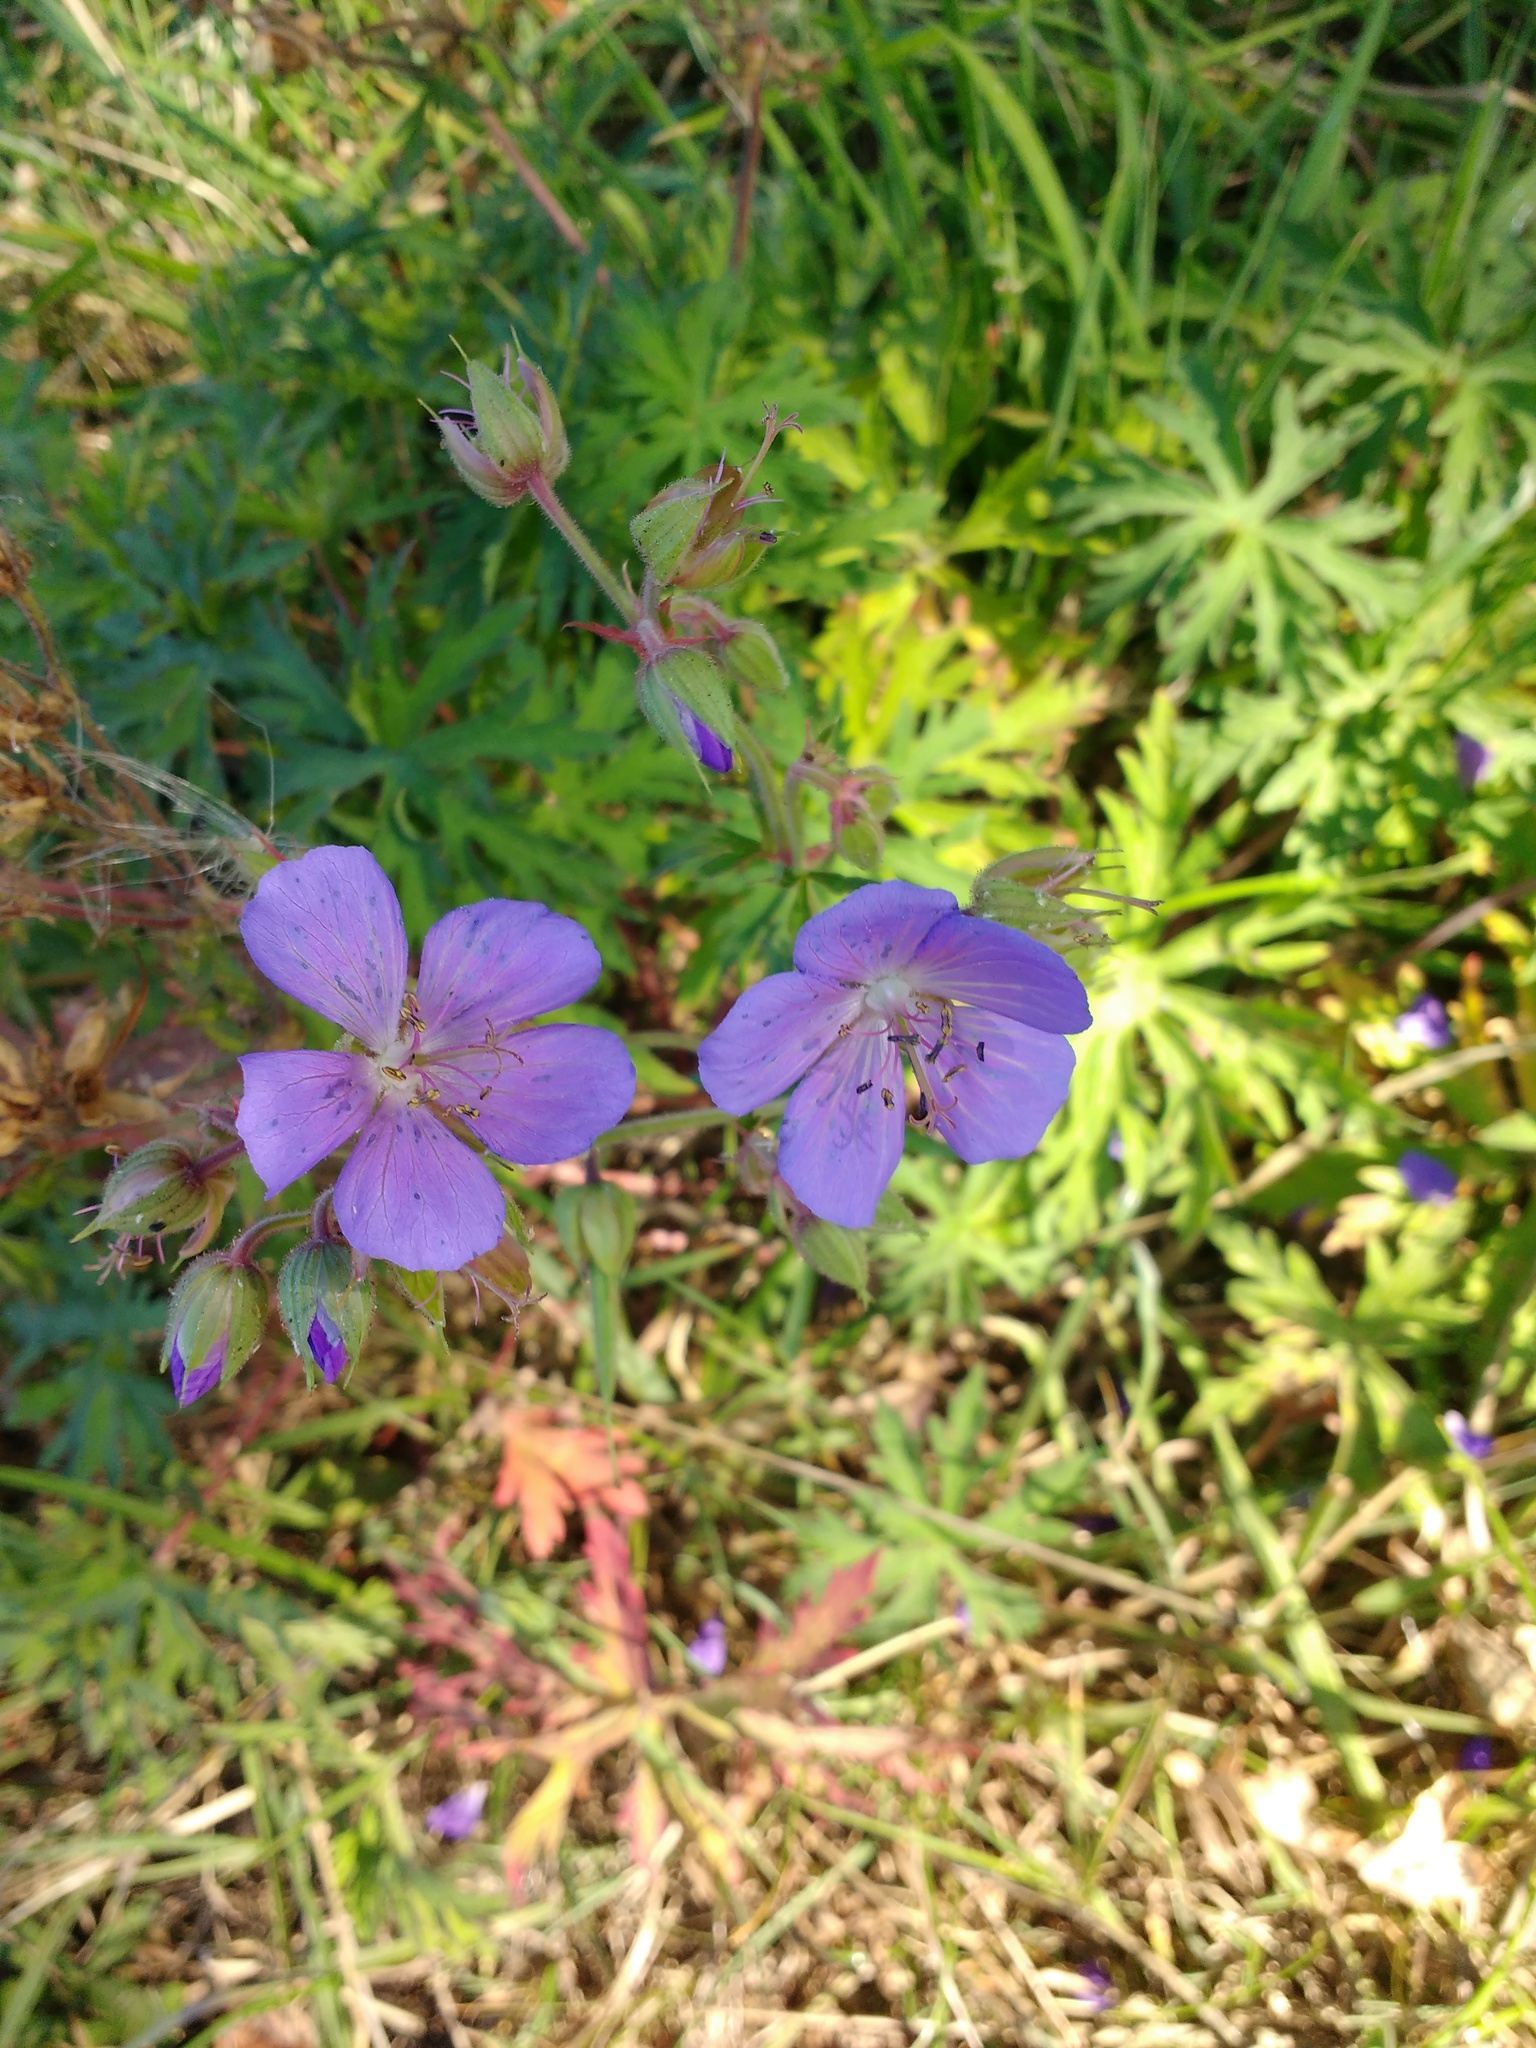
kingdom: Plantae
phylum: Tracheophyta
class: Magnoliopsida
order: Geraniales
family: Geraniaceae
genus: Geranium
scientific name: Geranium pratense
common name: Meadow crane's-bill
